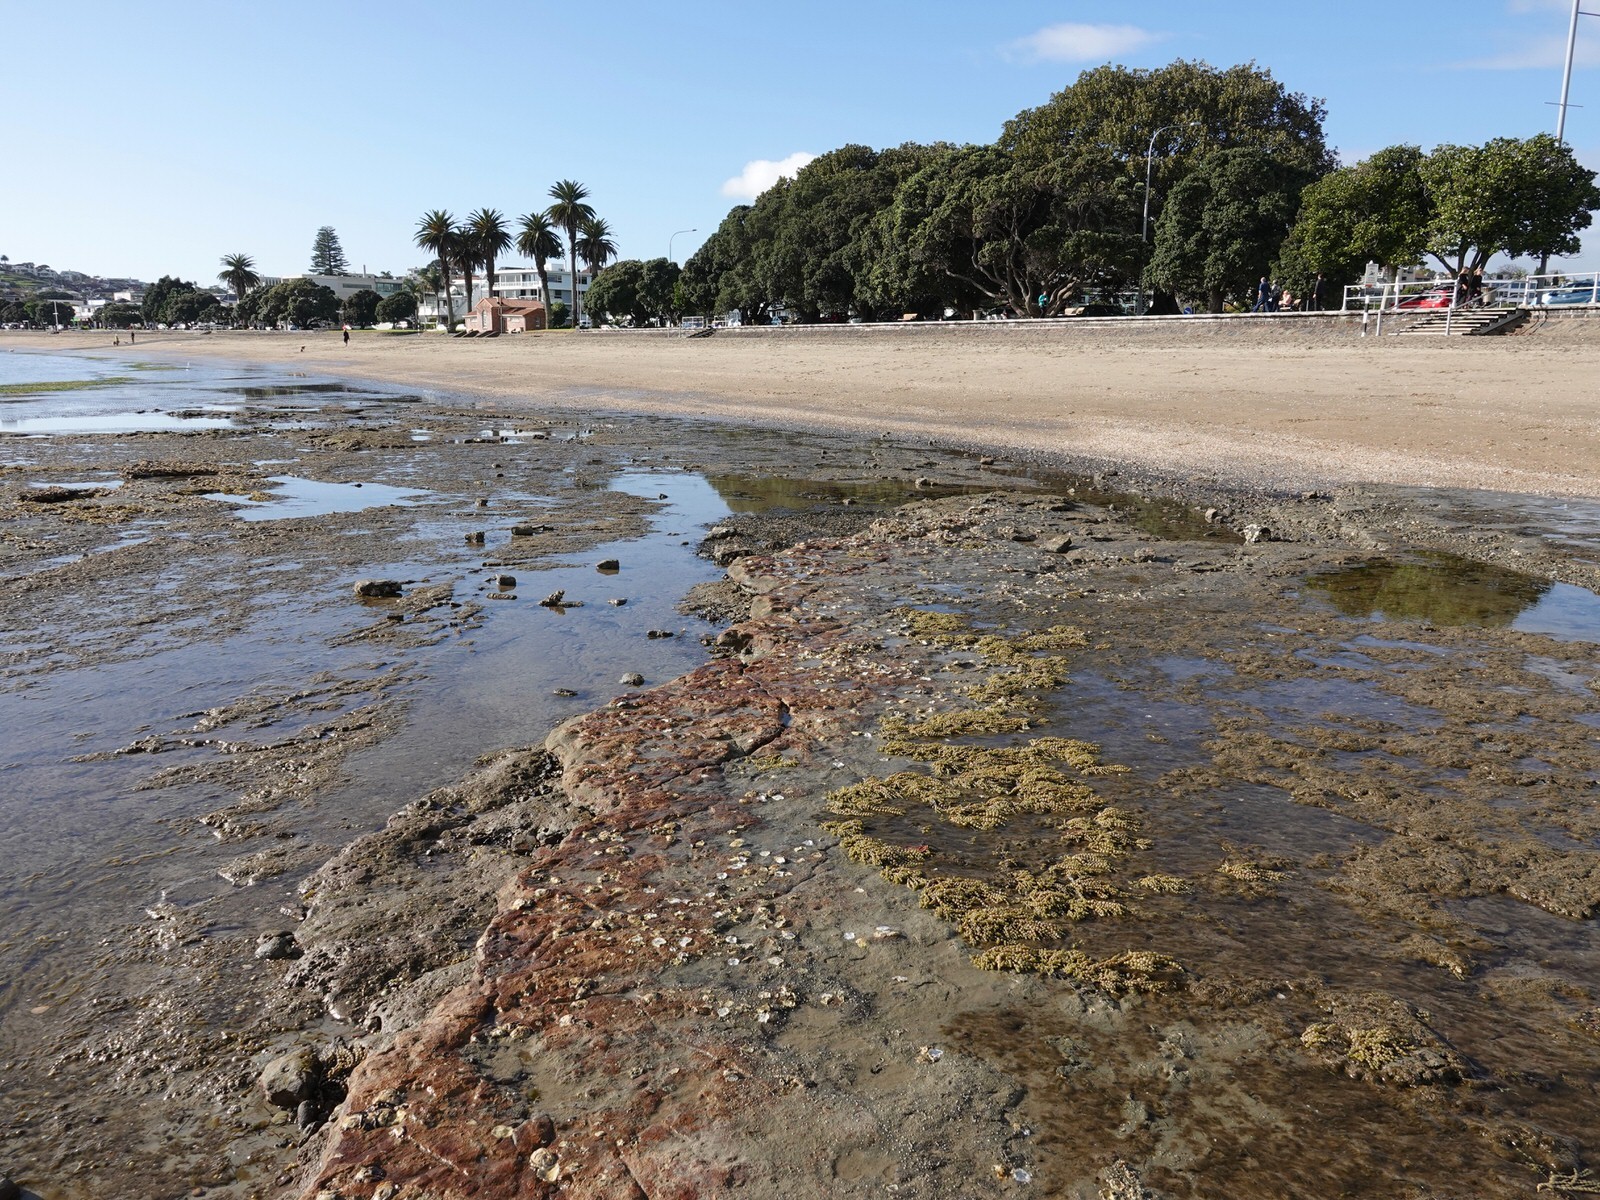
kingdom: Chromista
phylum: Ochrophyta
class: Phaeophyceae
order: Fucales
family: Hormosiraceae
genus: Hormosira
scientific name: Hormosira banksii
